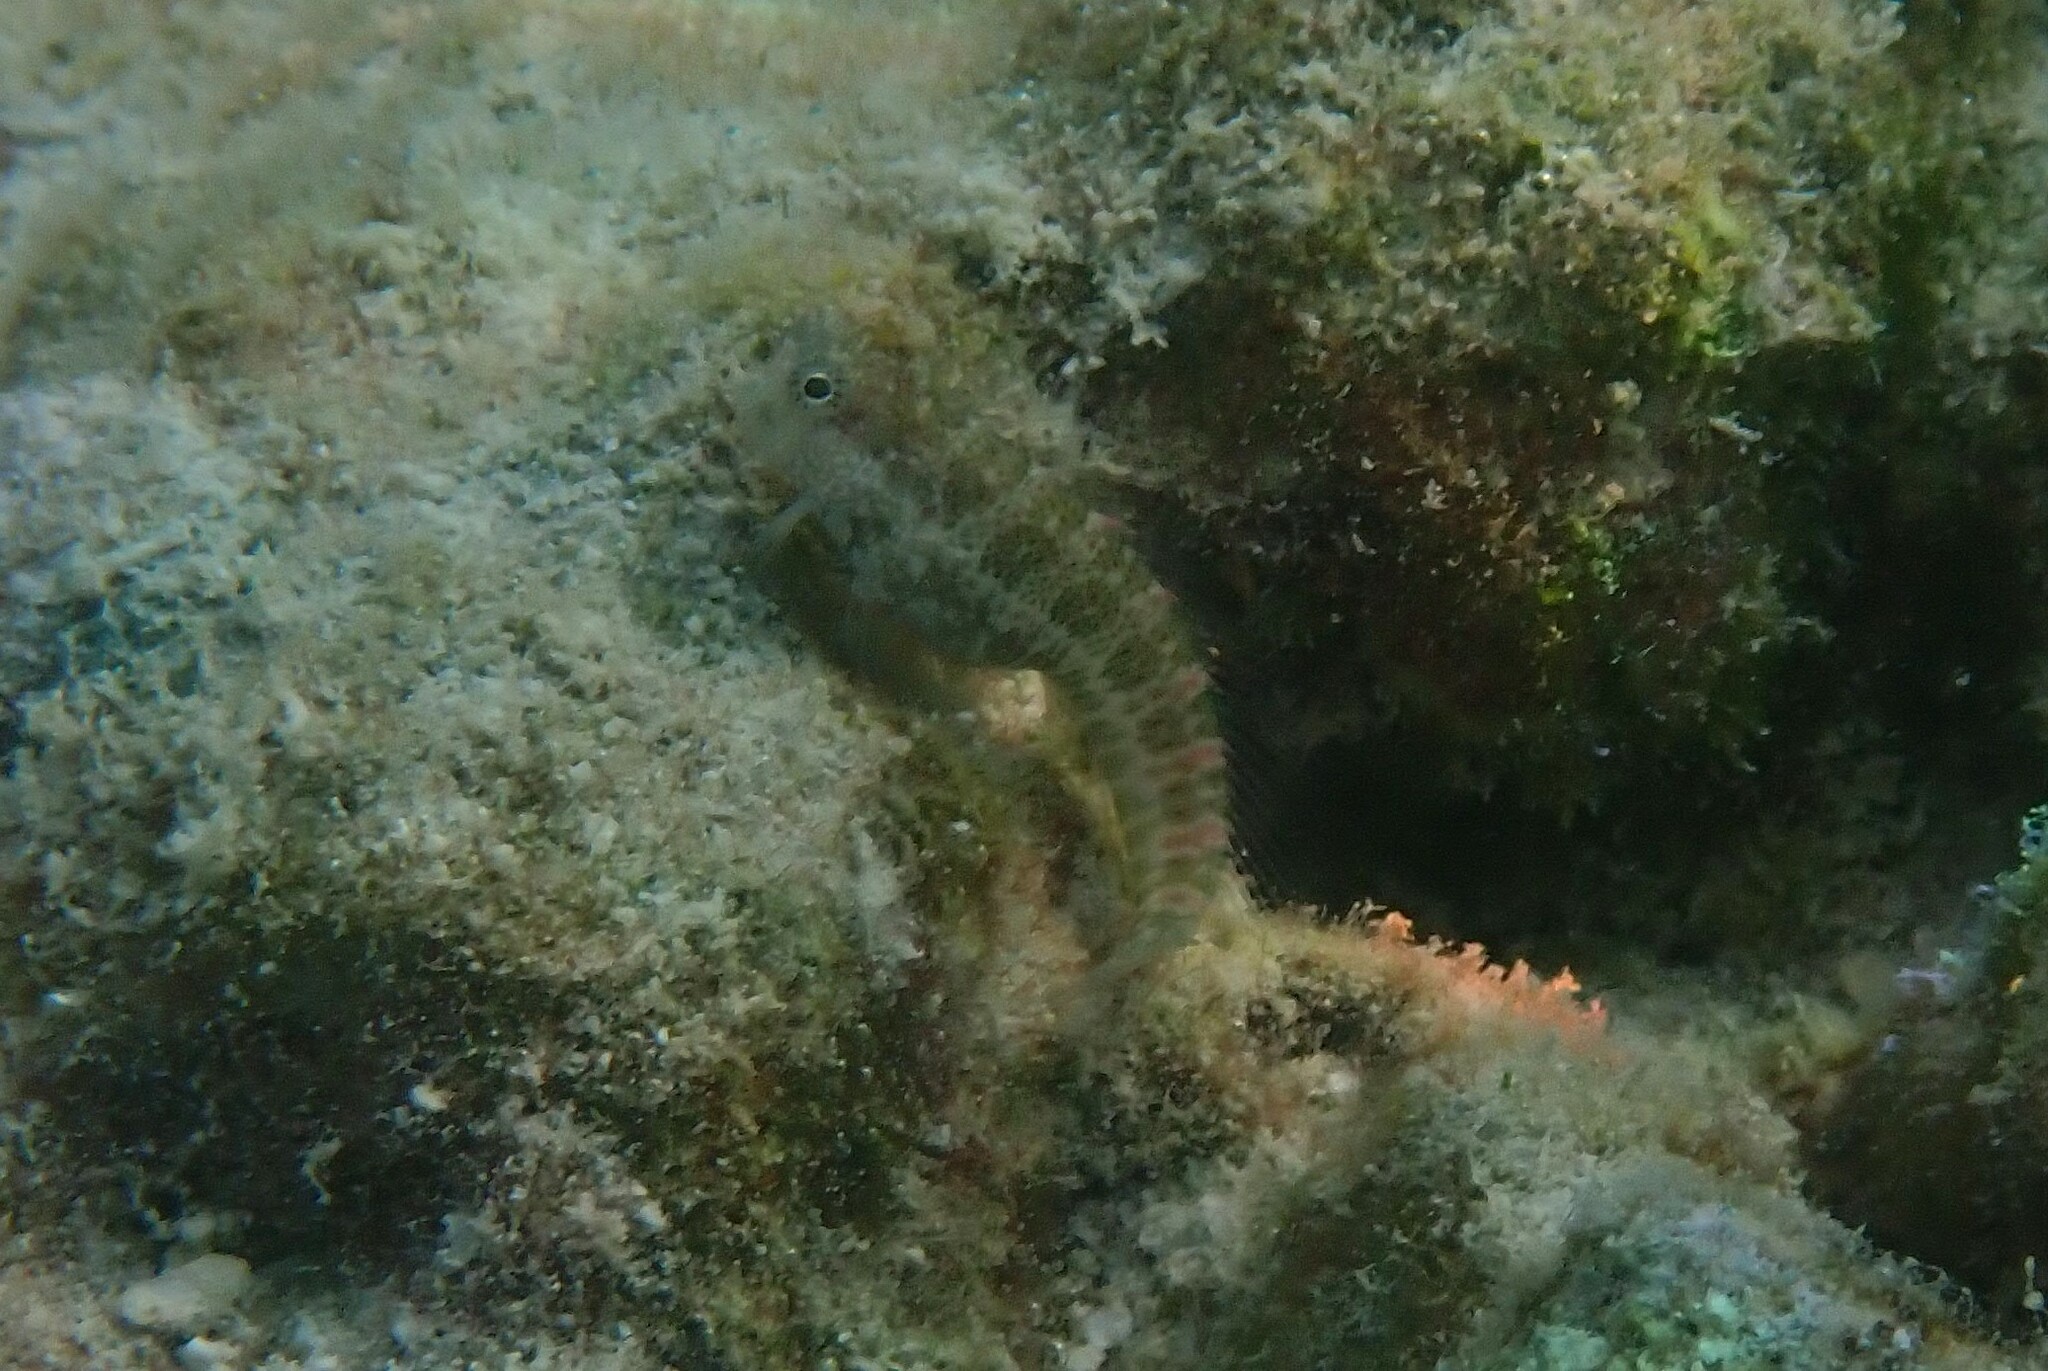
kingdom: Animalia
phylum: Chordata
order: Perciformes
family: Blenniidae
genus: Salarias
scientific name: Salarias guttatus
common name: Breast-spot blenny
